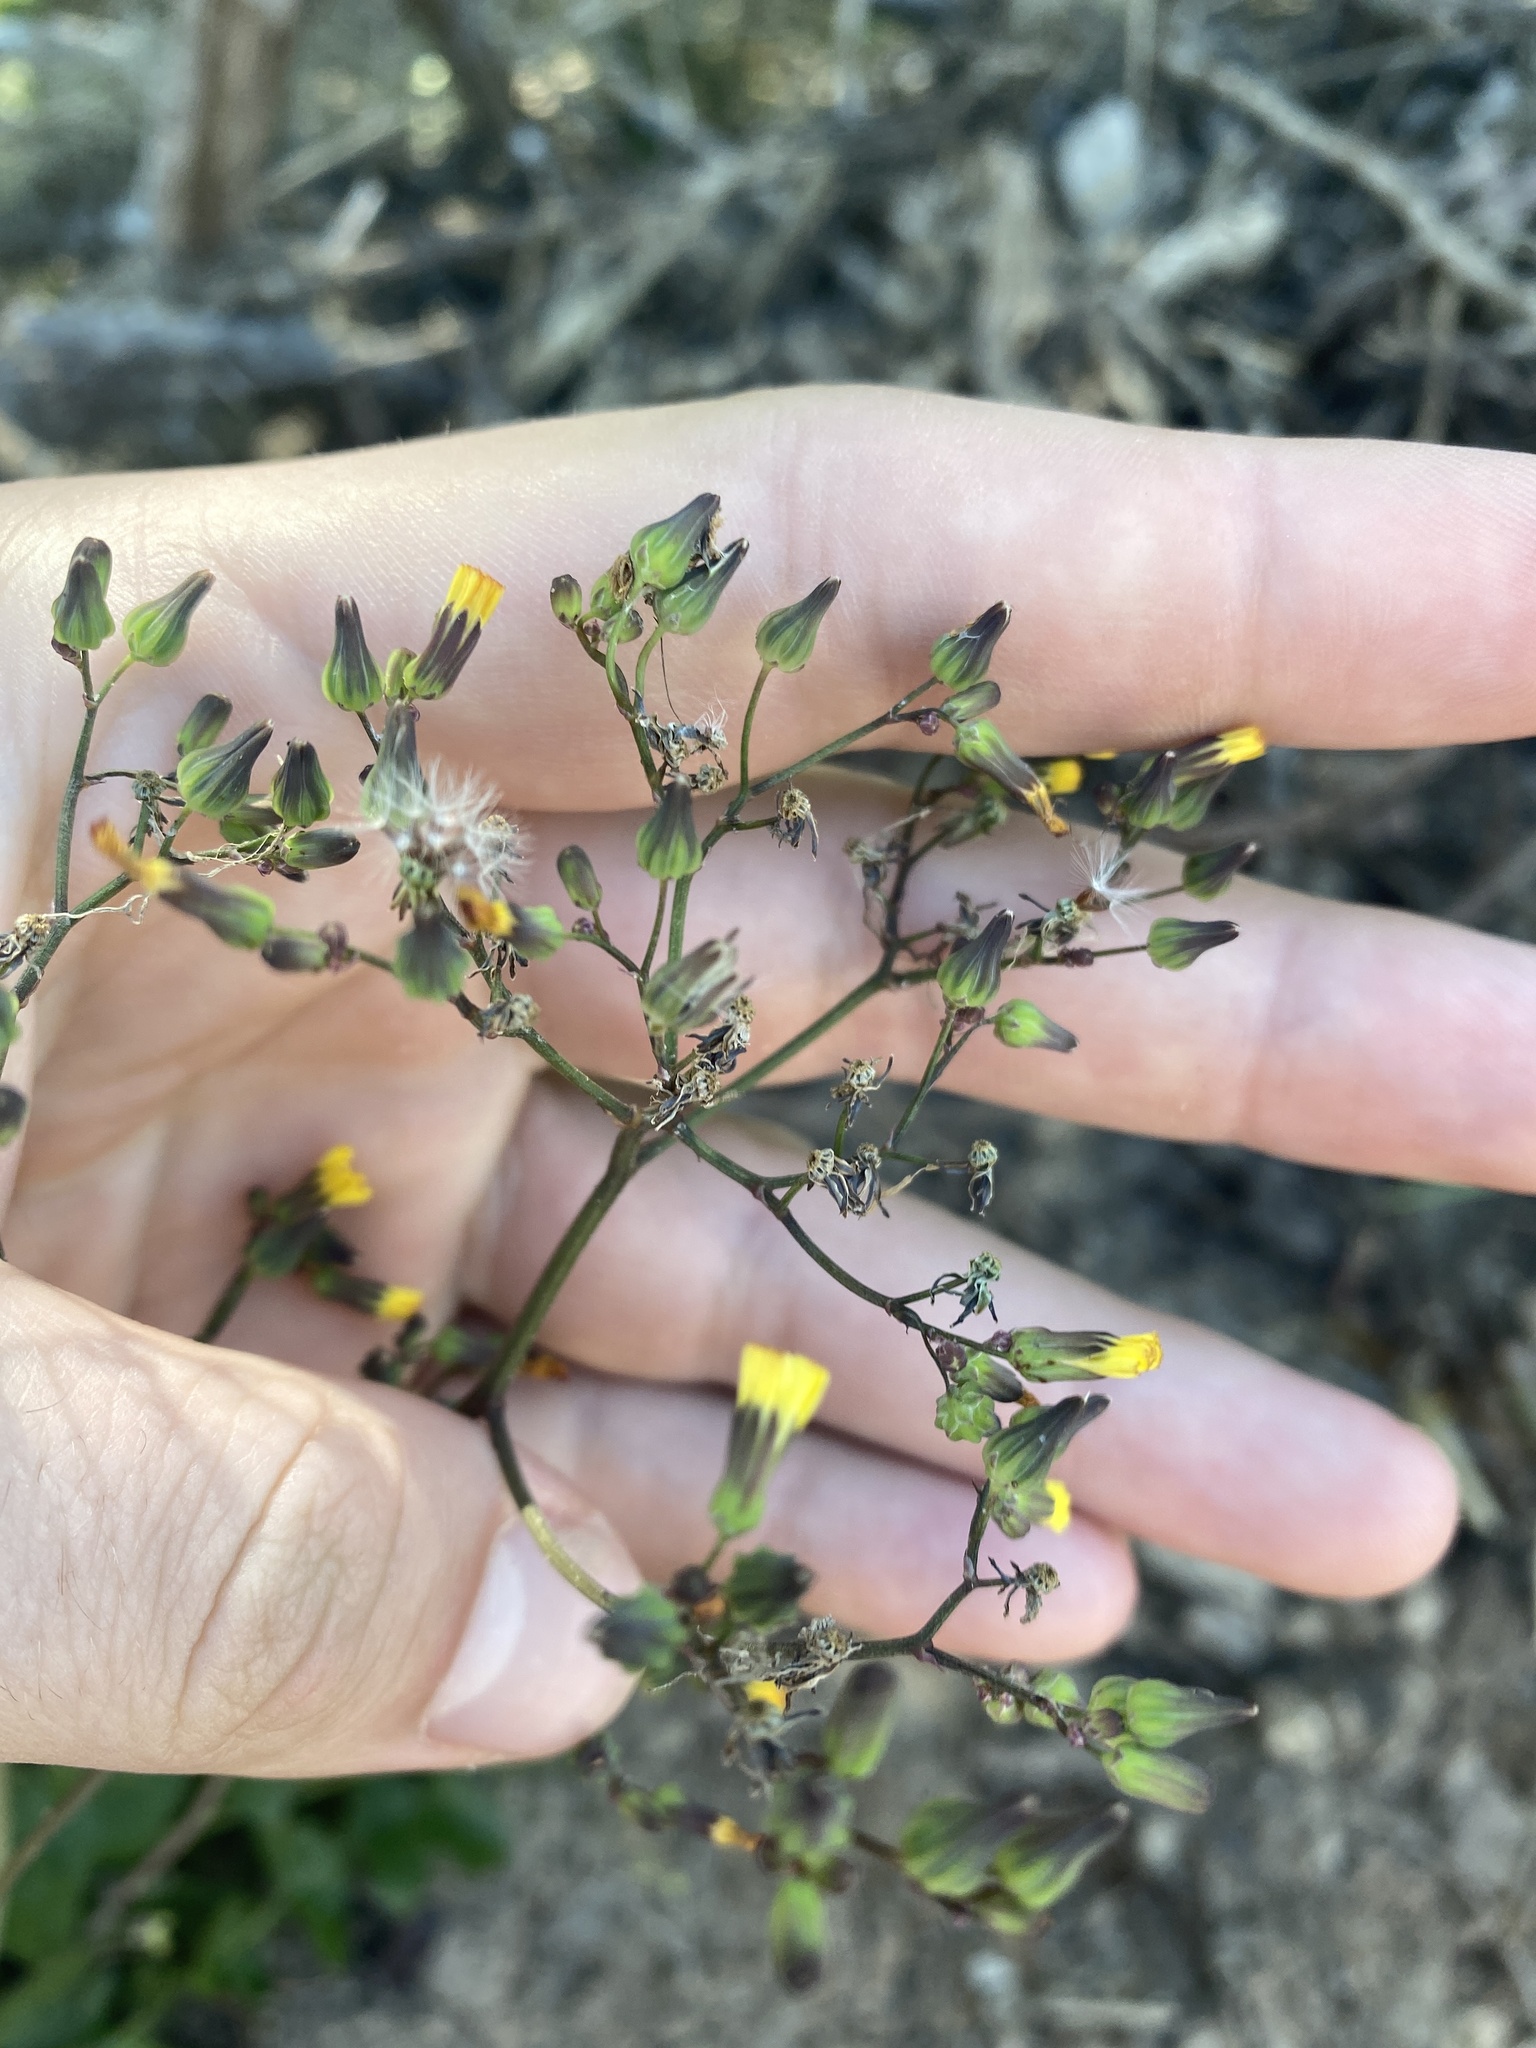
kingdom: Plantae
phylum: Tracheophyta
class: Magnoliopsida
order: Asterales
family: Asteraceae
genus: Youngia
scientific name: Youngia japonica
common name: Oriental false hawksbeard
